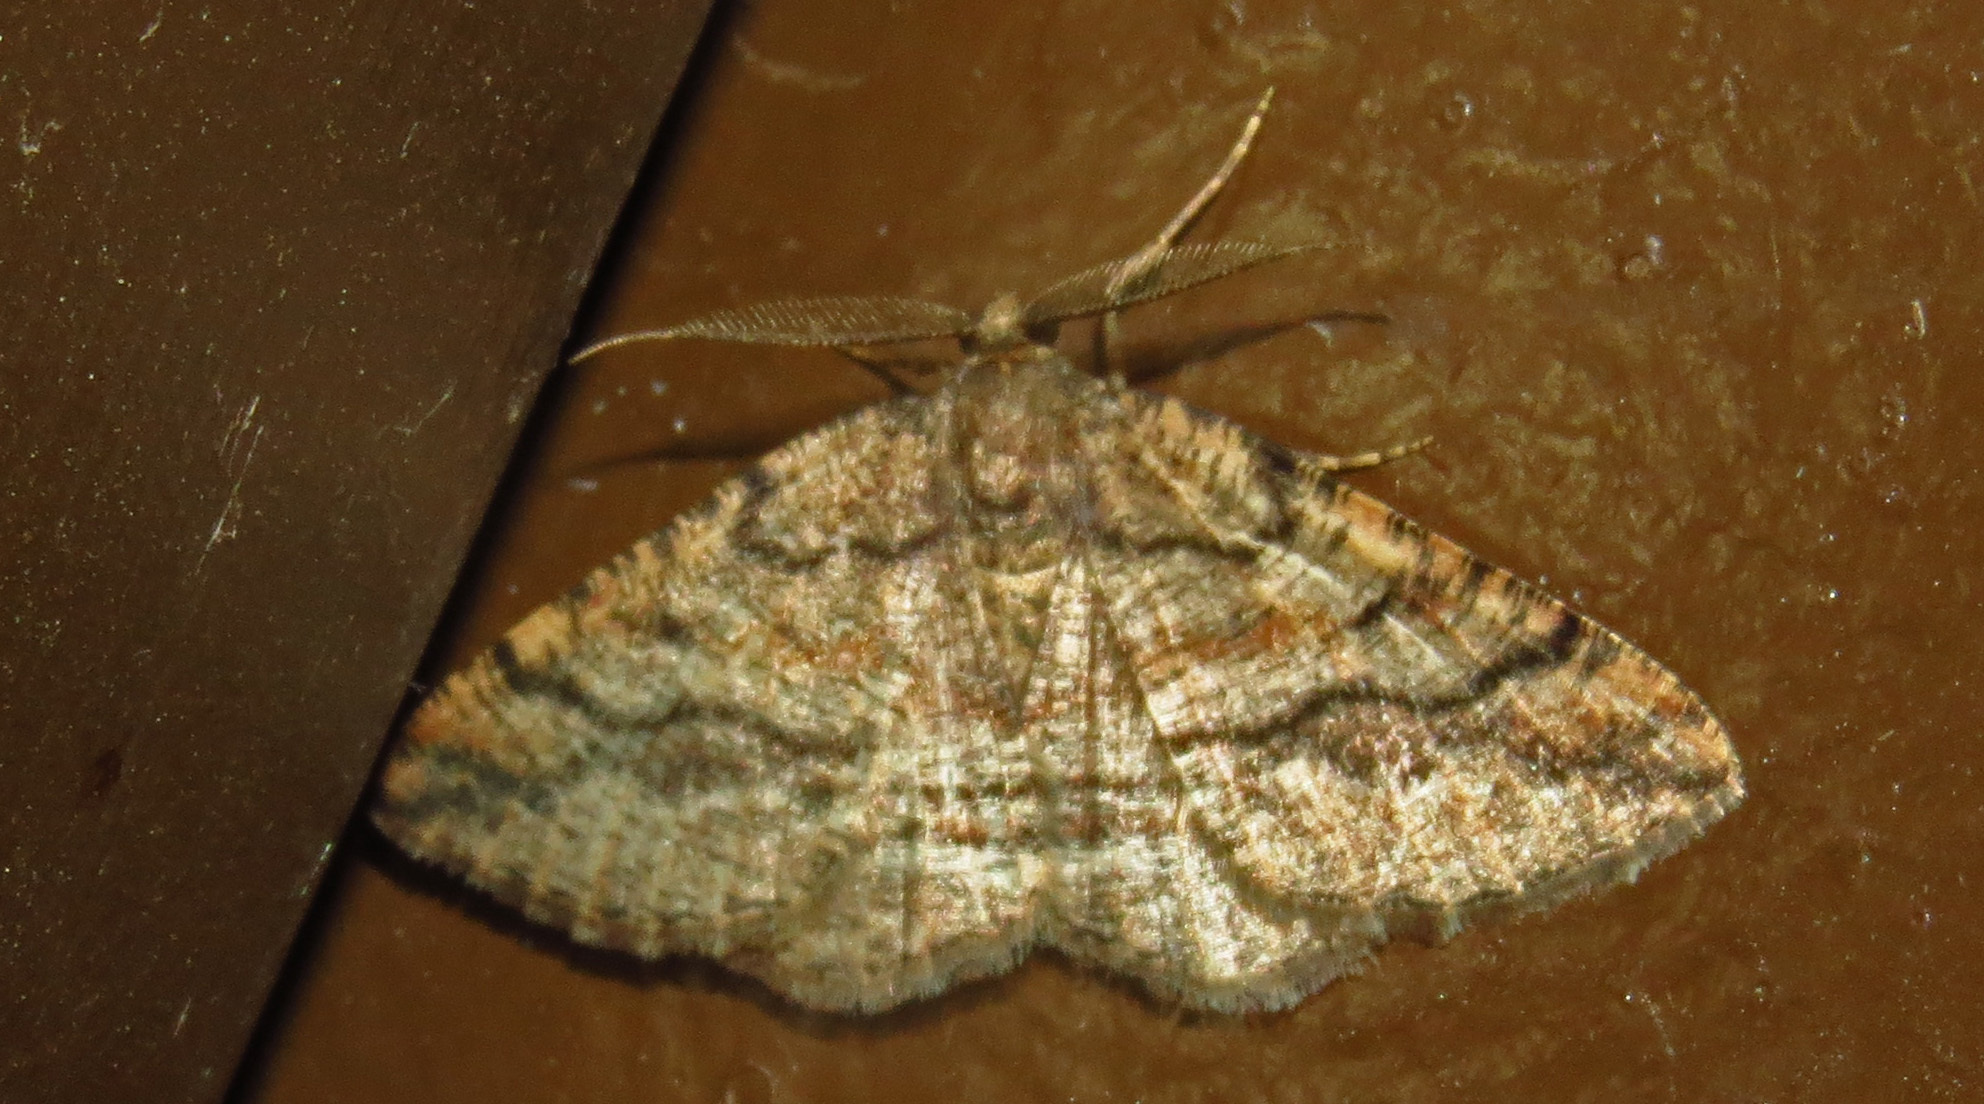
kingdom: Animalia
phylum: Arthropoda
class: Insecta
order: Lepidoptera
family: Geometridae
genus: Pterospoda
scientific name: Pterospoda nigrescens
